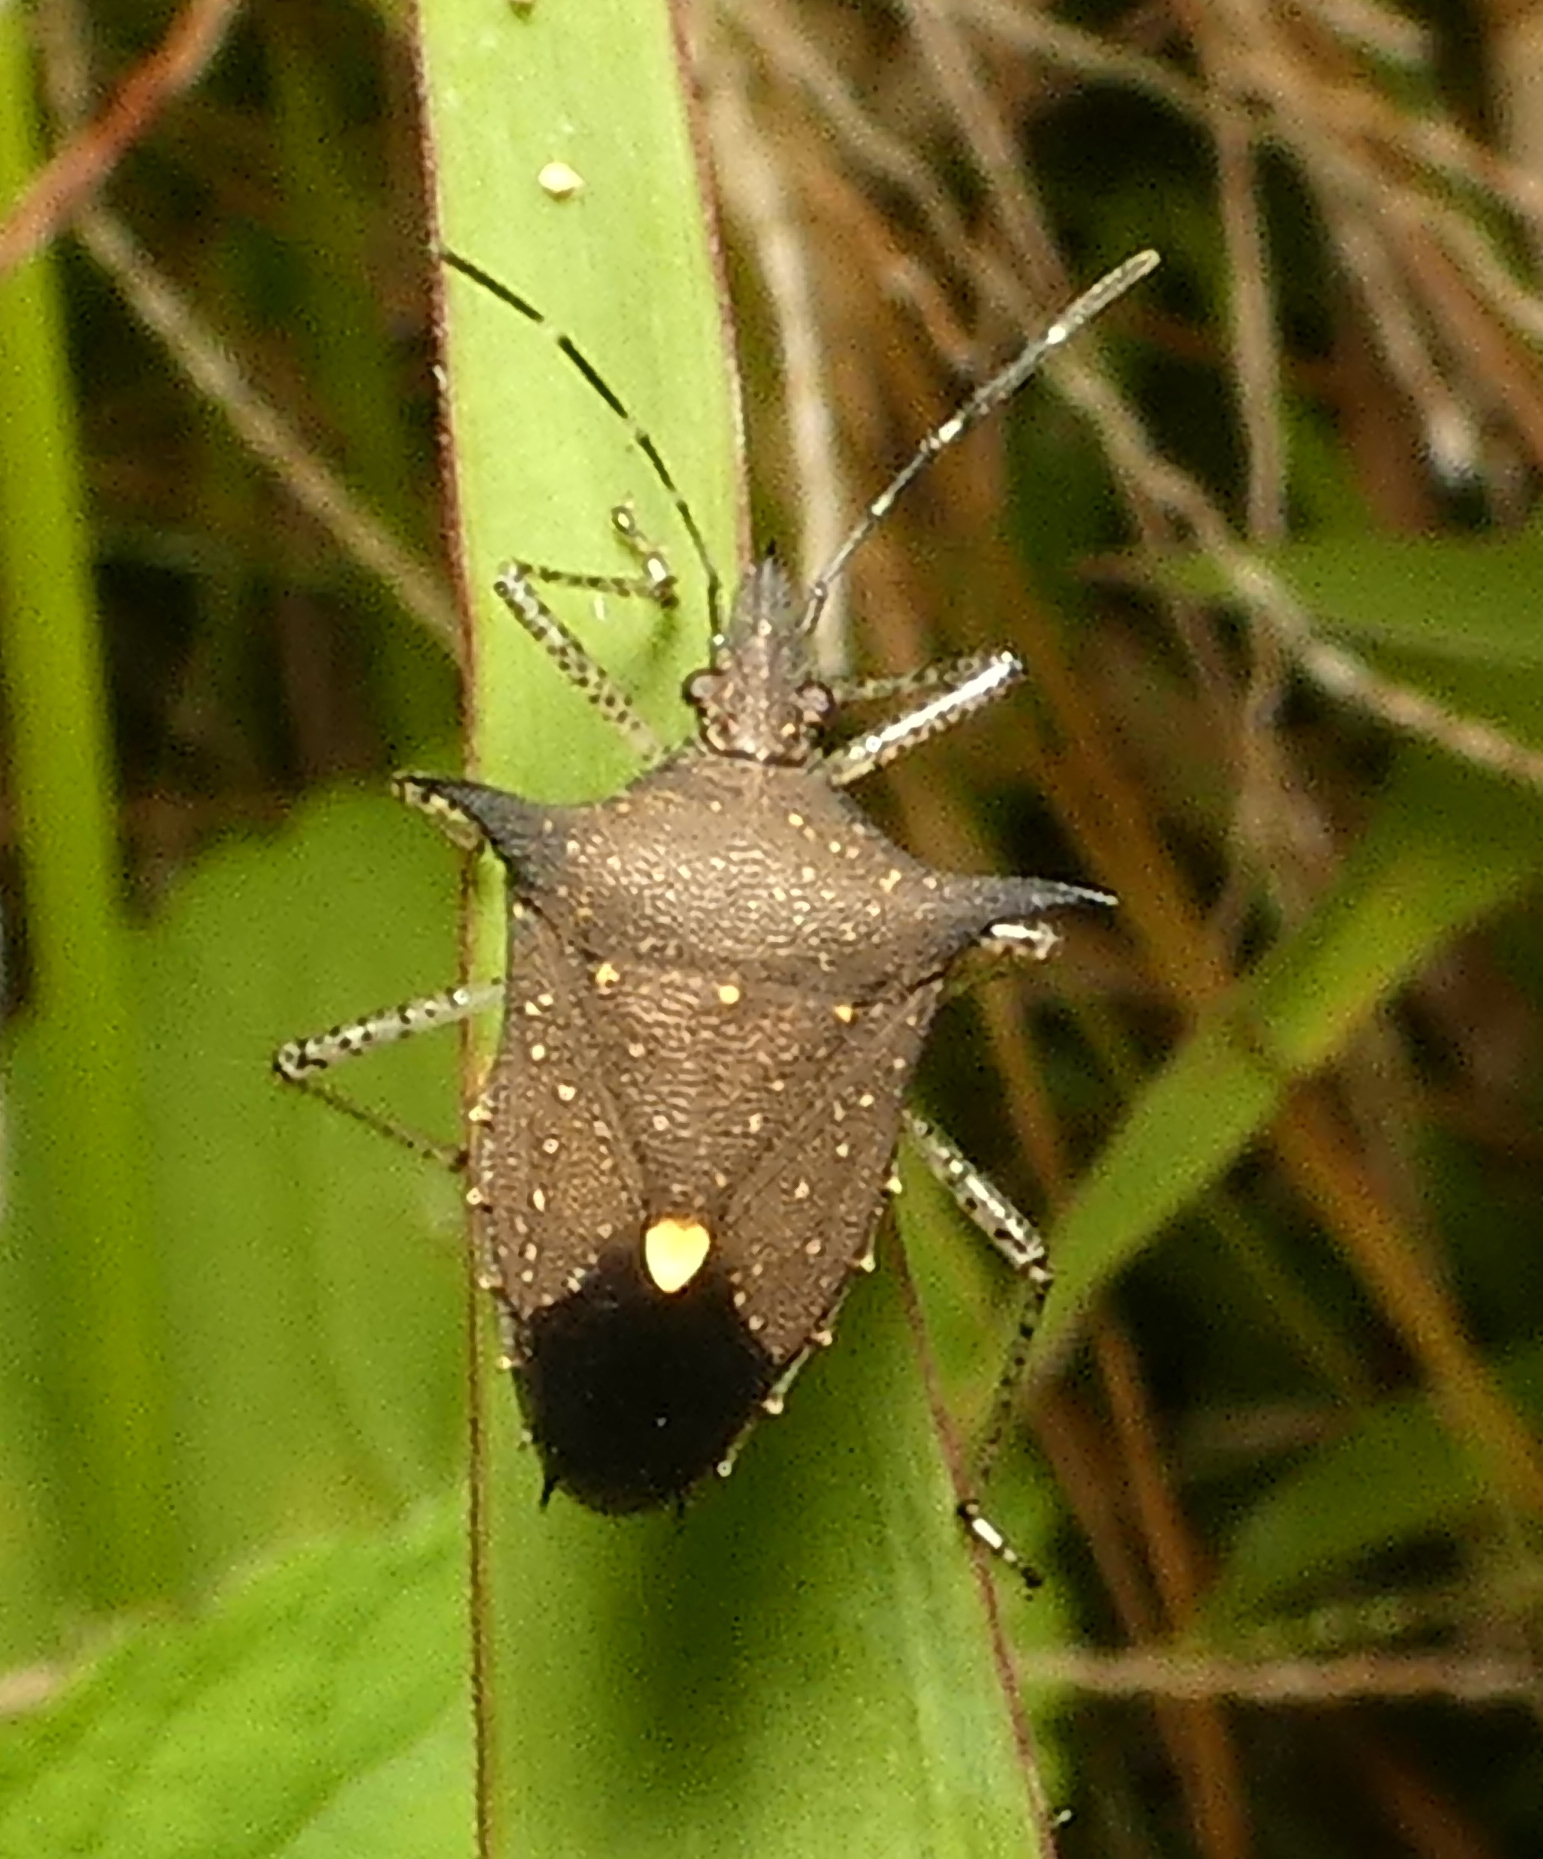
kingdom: Animalia
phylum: Arthropoda
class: Insecta
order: Hemiptera
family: Pentatomidae
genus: Proxys
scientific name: Proxys albopunctulatus
